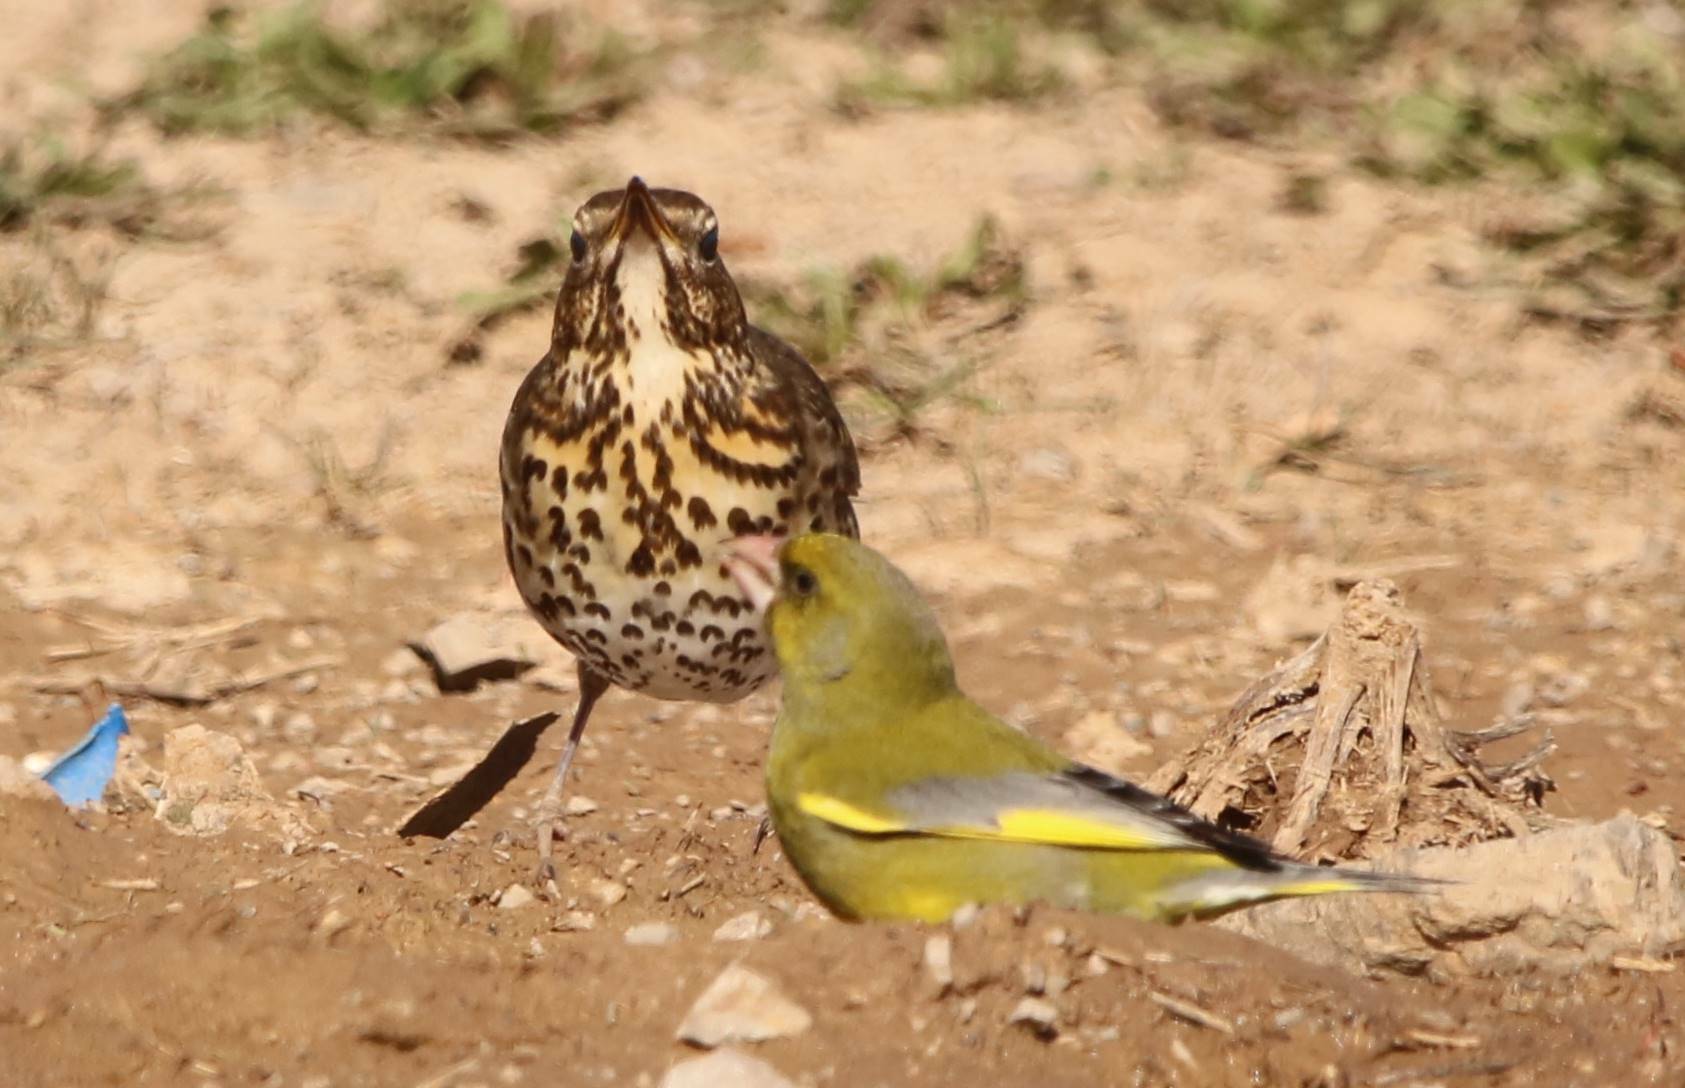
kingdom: Plantae
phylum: Tracheophyta
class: Liliopsida
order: Poales
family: Poaceae
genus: Chloris
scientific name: Chloris chloris
